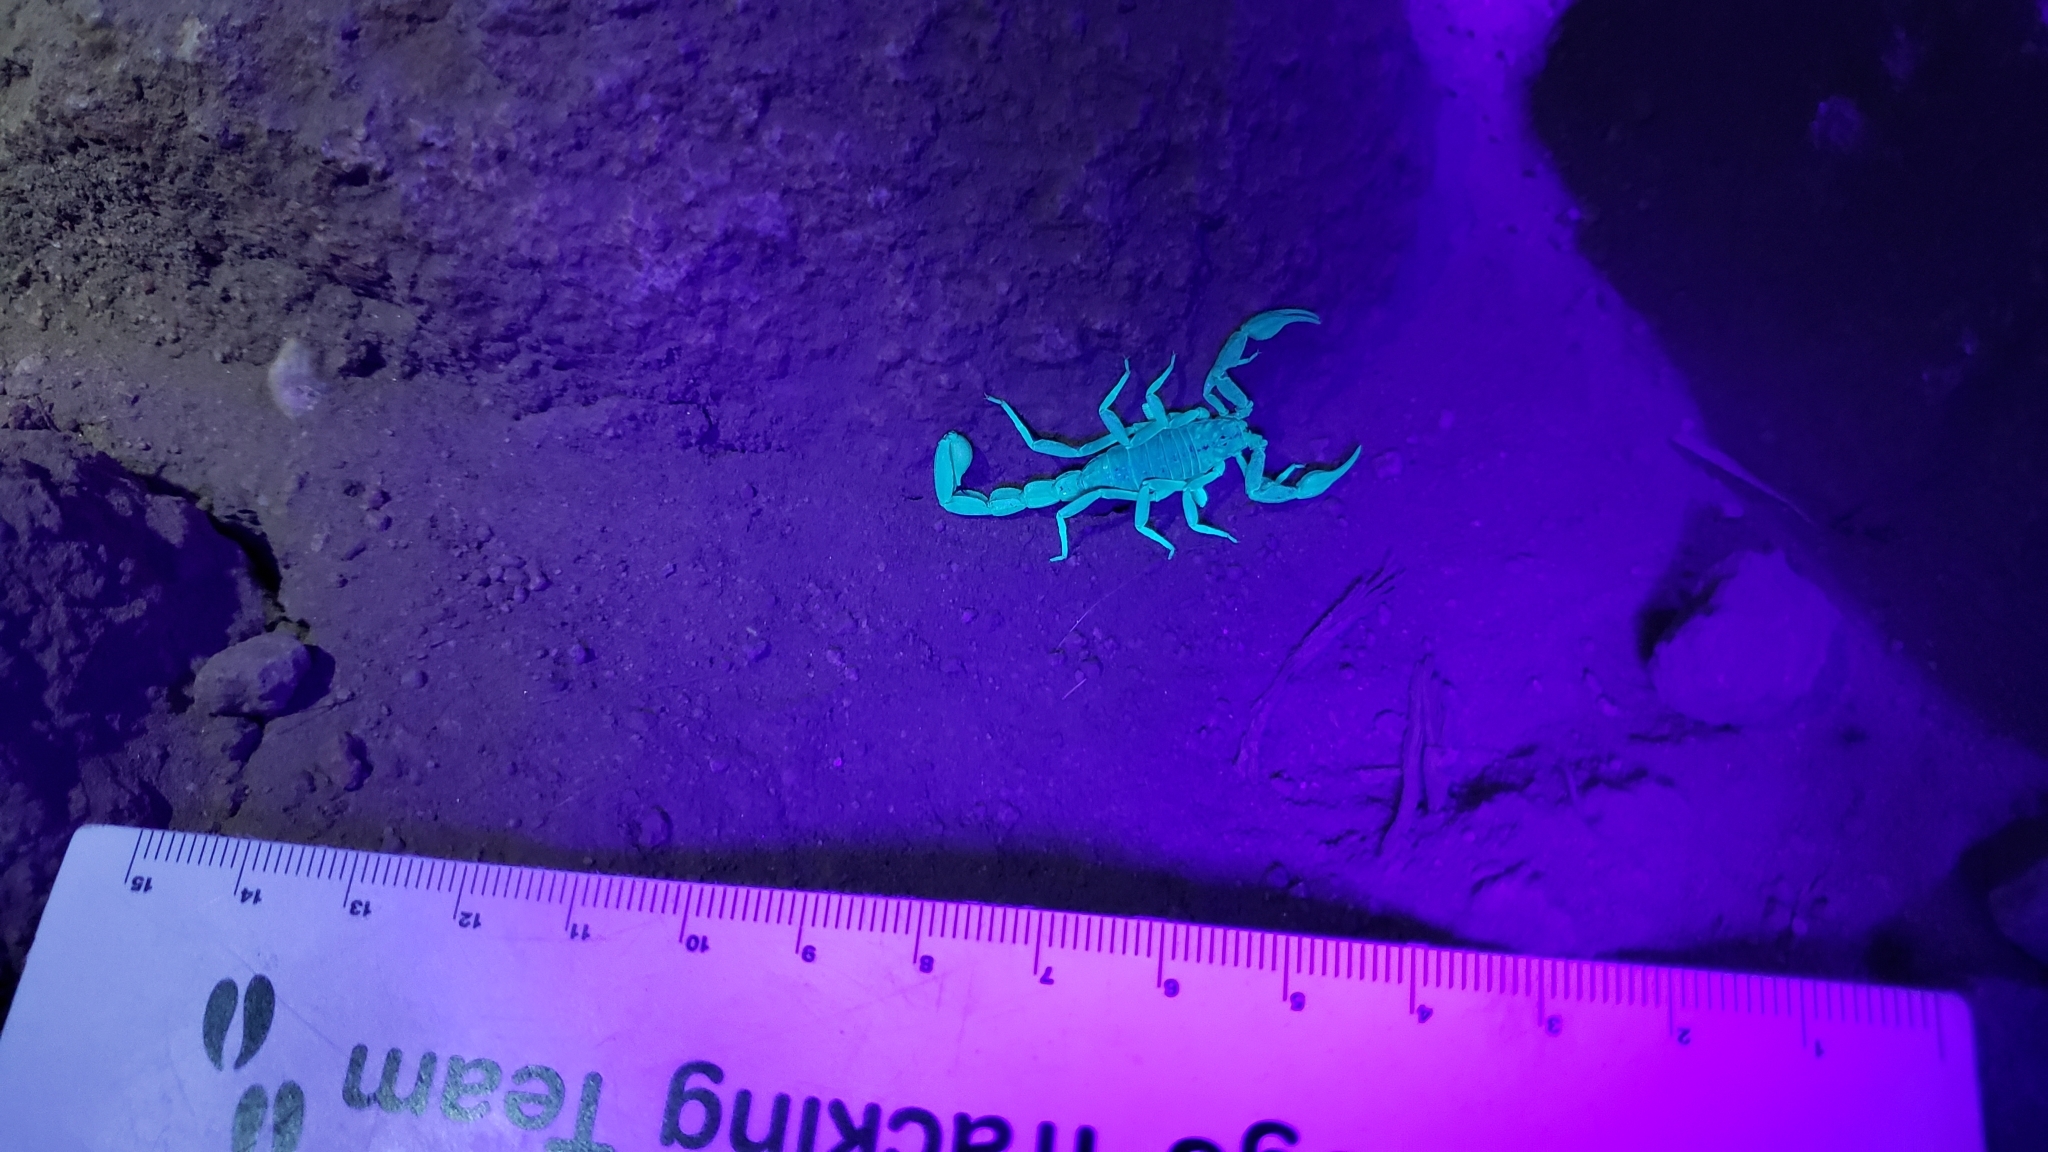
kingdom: Animalia
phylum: Arthropoda
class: Arachnida
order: Scorpiones
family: Vaejovidae
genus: Paruroctonus
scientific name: Paruroctonus silvestrii
